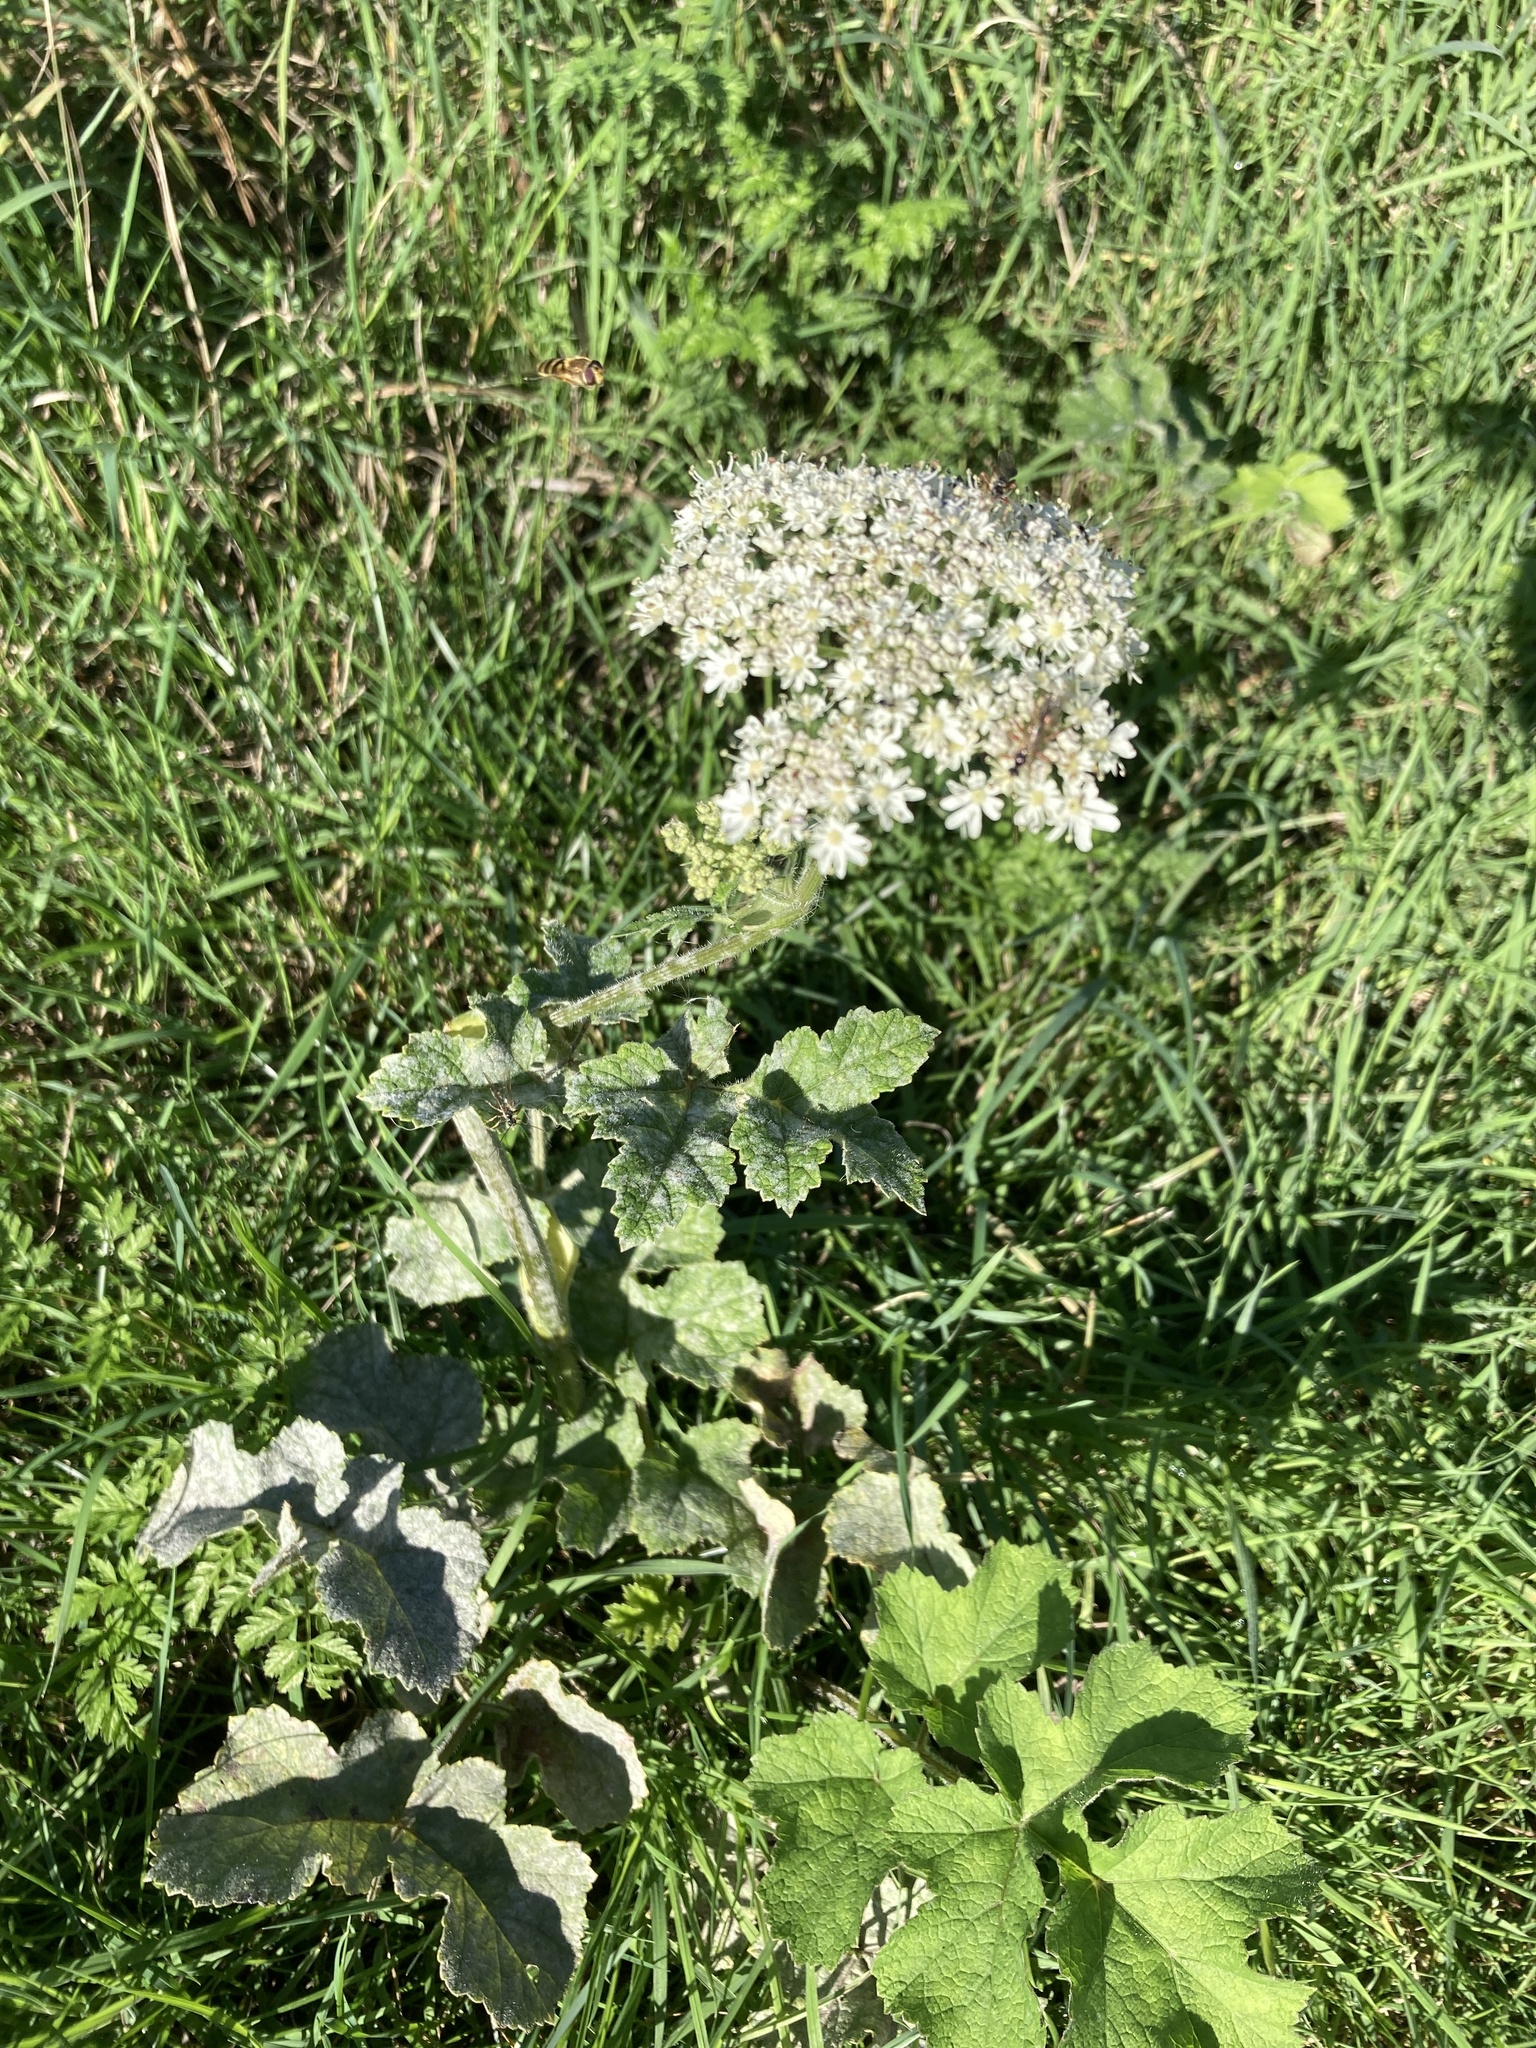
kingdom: Plantae
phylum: Tracheophyta
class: Magnoliopsida
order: Apiales
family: Apiaceae
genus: Heracleum
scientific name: Heracleum sphondylium
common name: Hogweed
